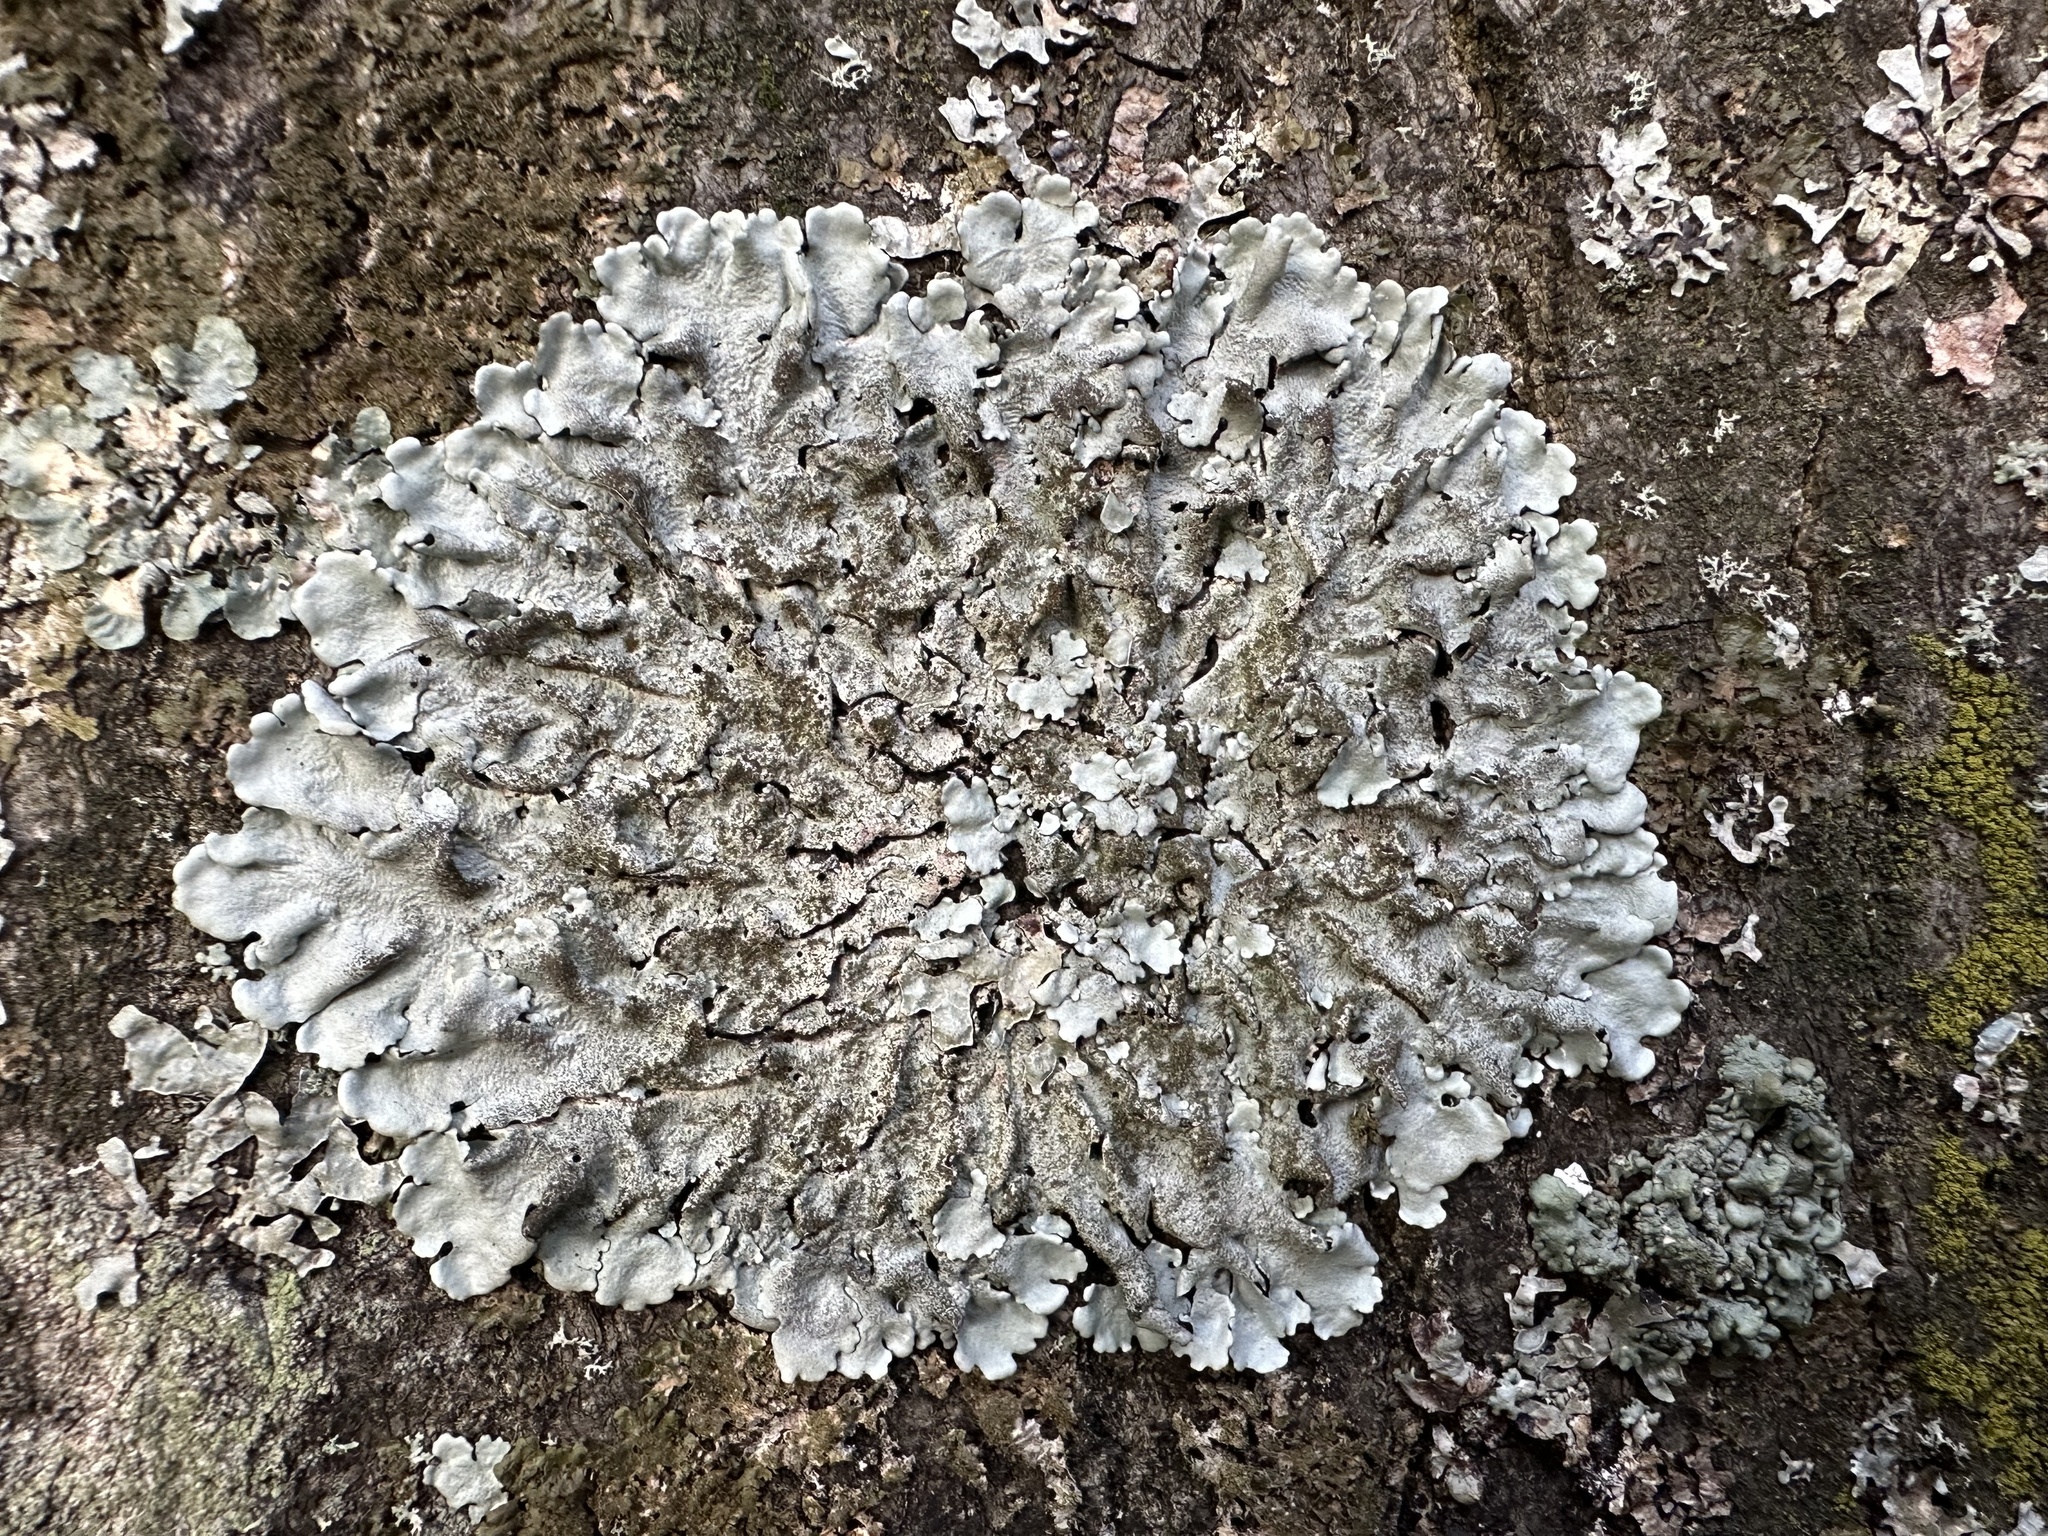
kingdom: Fungi
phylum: Ascomycota
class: Lecanoromycetes
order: Lecanorales
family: Parmeliaceae
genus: Parmelina
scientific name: Parmelina tiliacea
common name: Linden shield lichen
